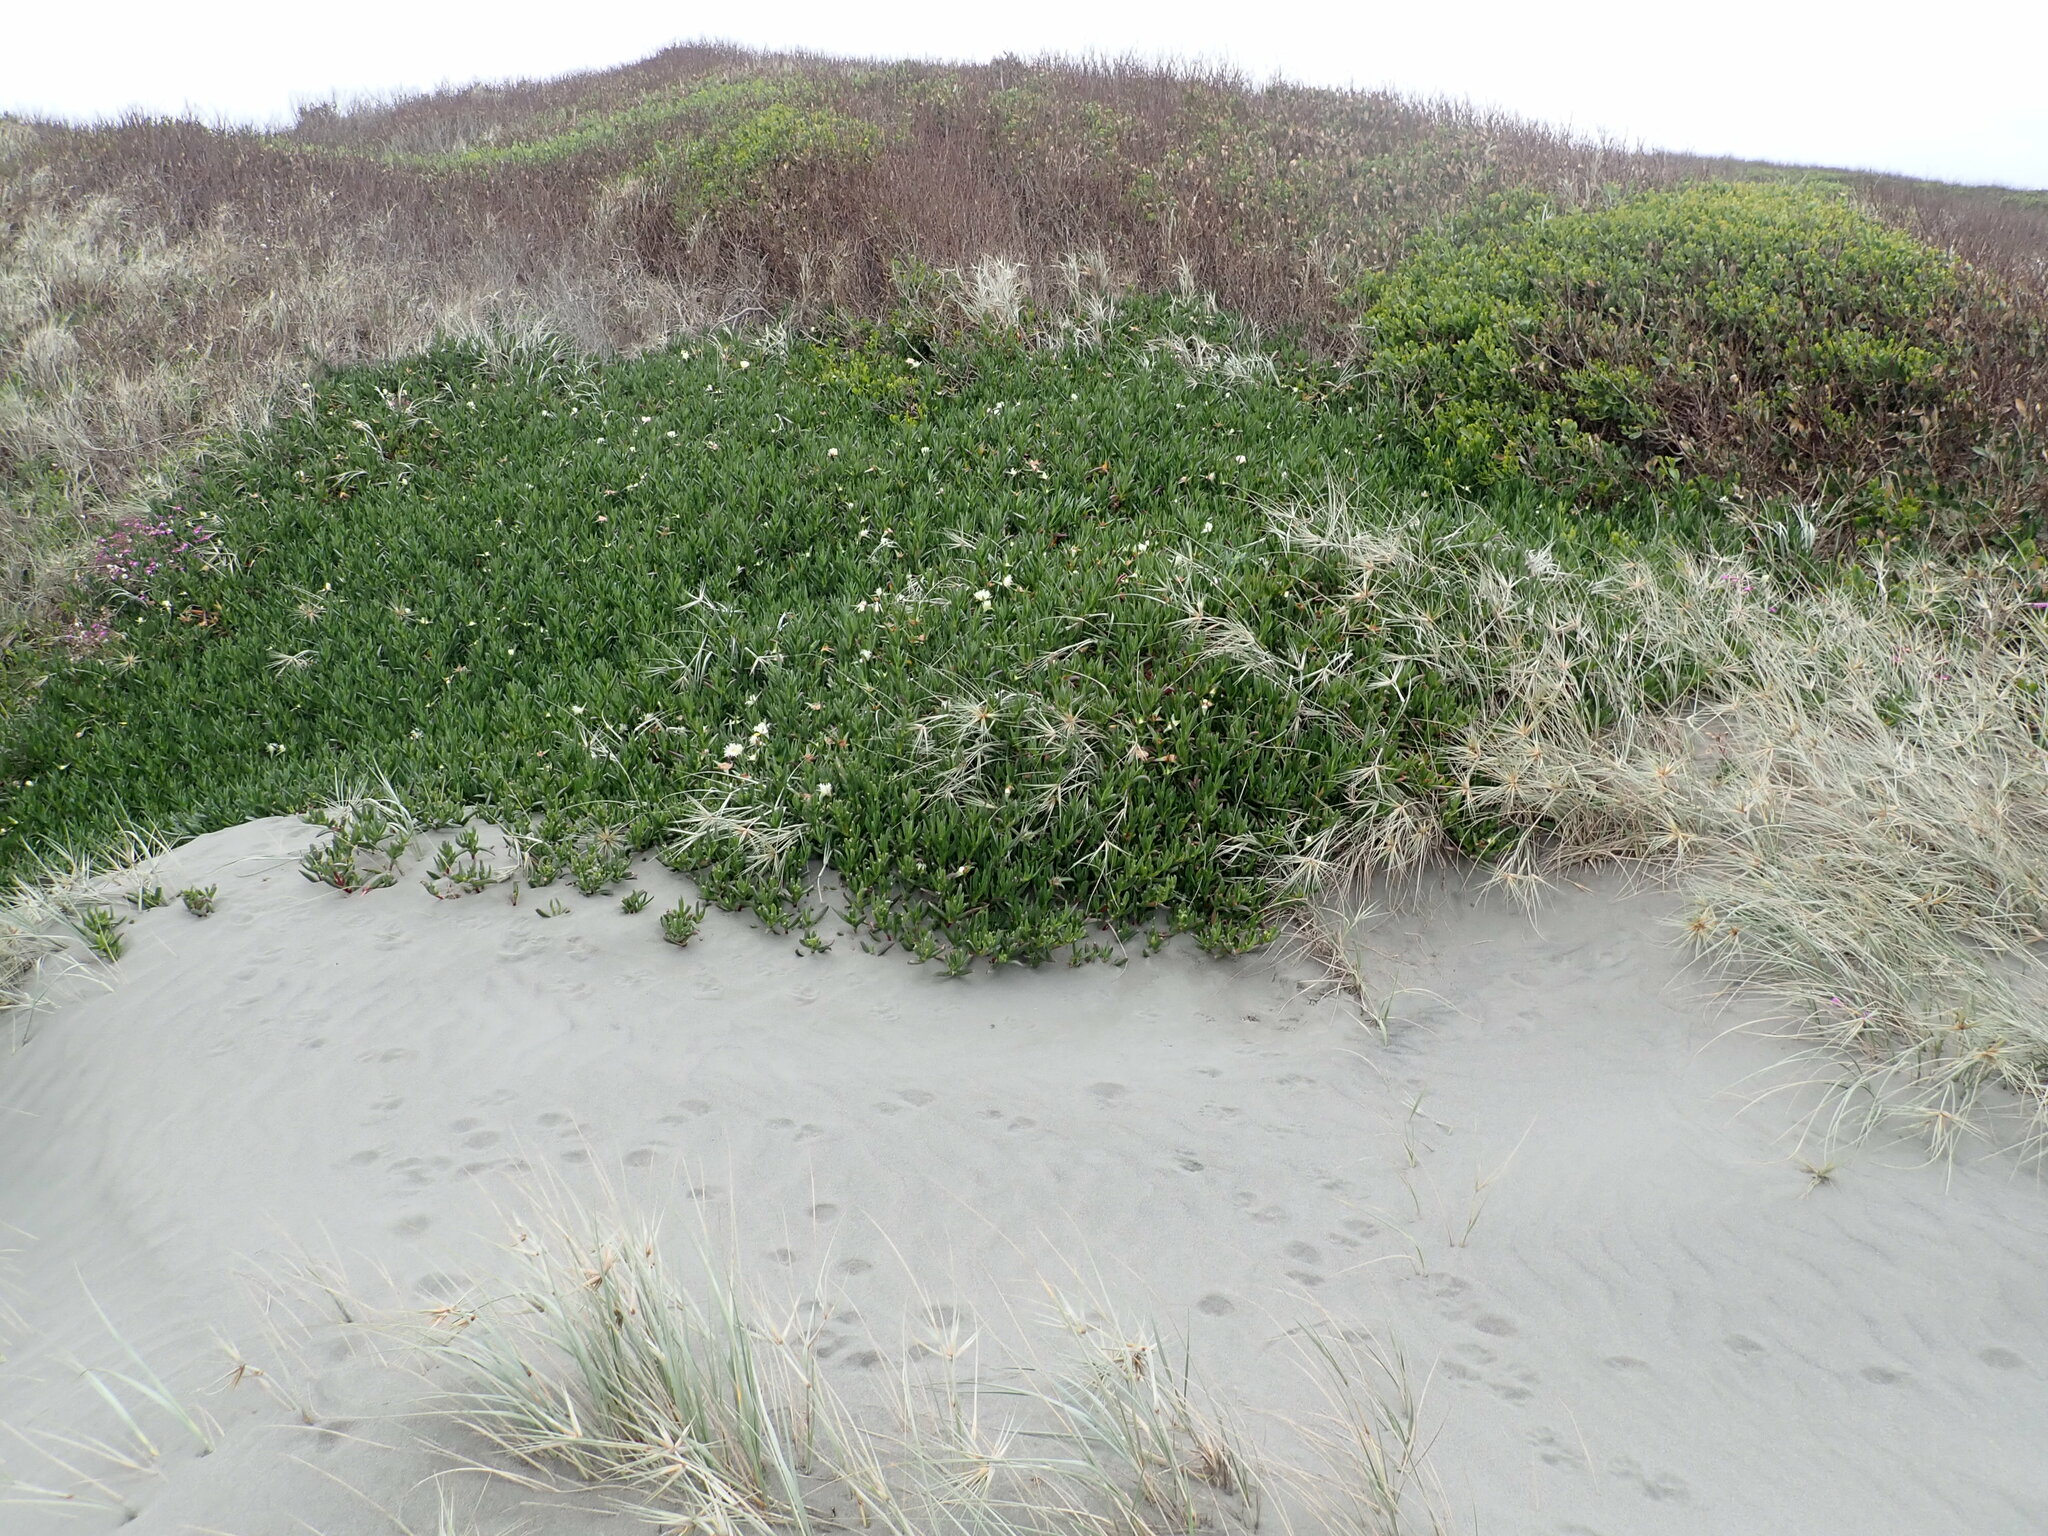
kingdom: Plantae
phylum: Tracheophyta
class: Magnoliopsida
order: Caryophyllales
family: Aizoaceae
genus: Carpobrotus
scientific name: Carpobrotus edulis
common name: Hottentot-fig
